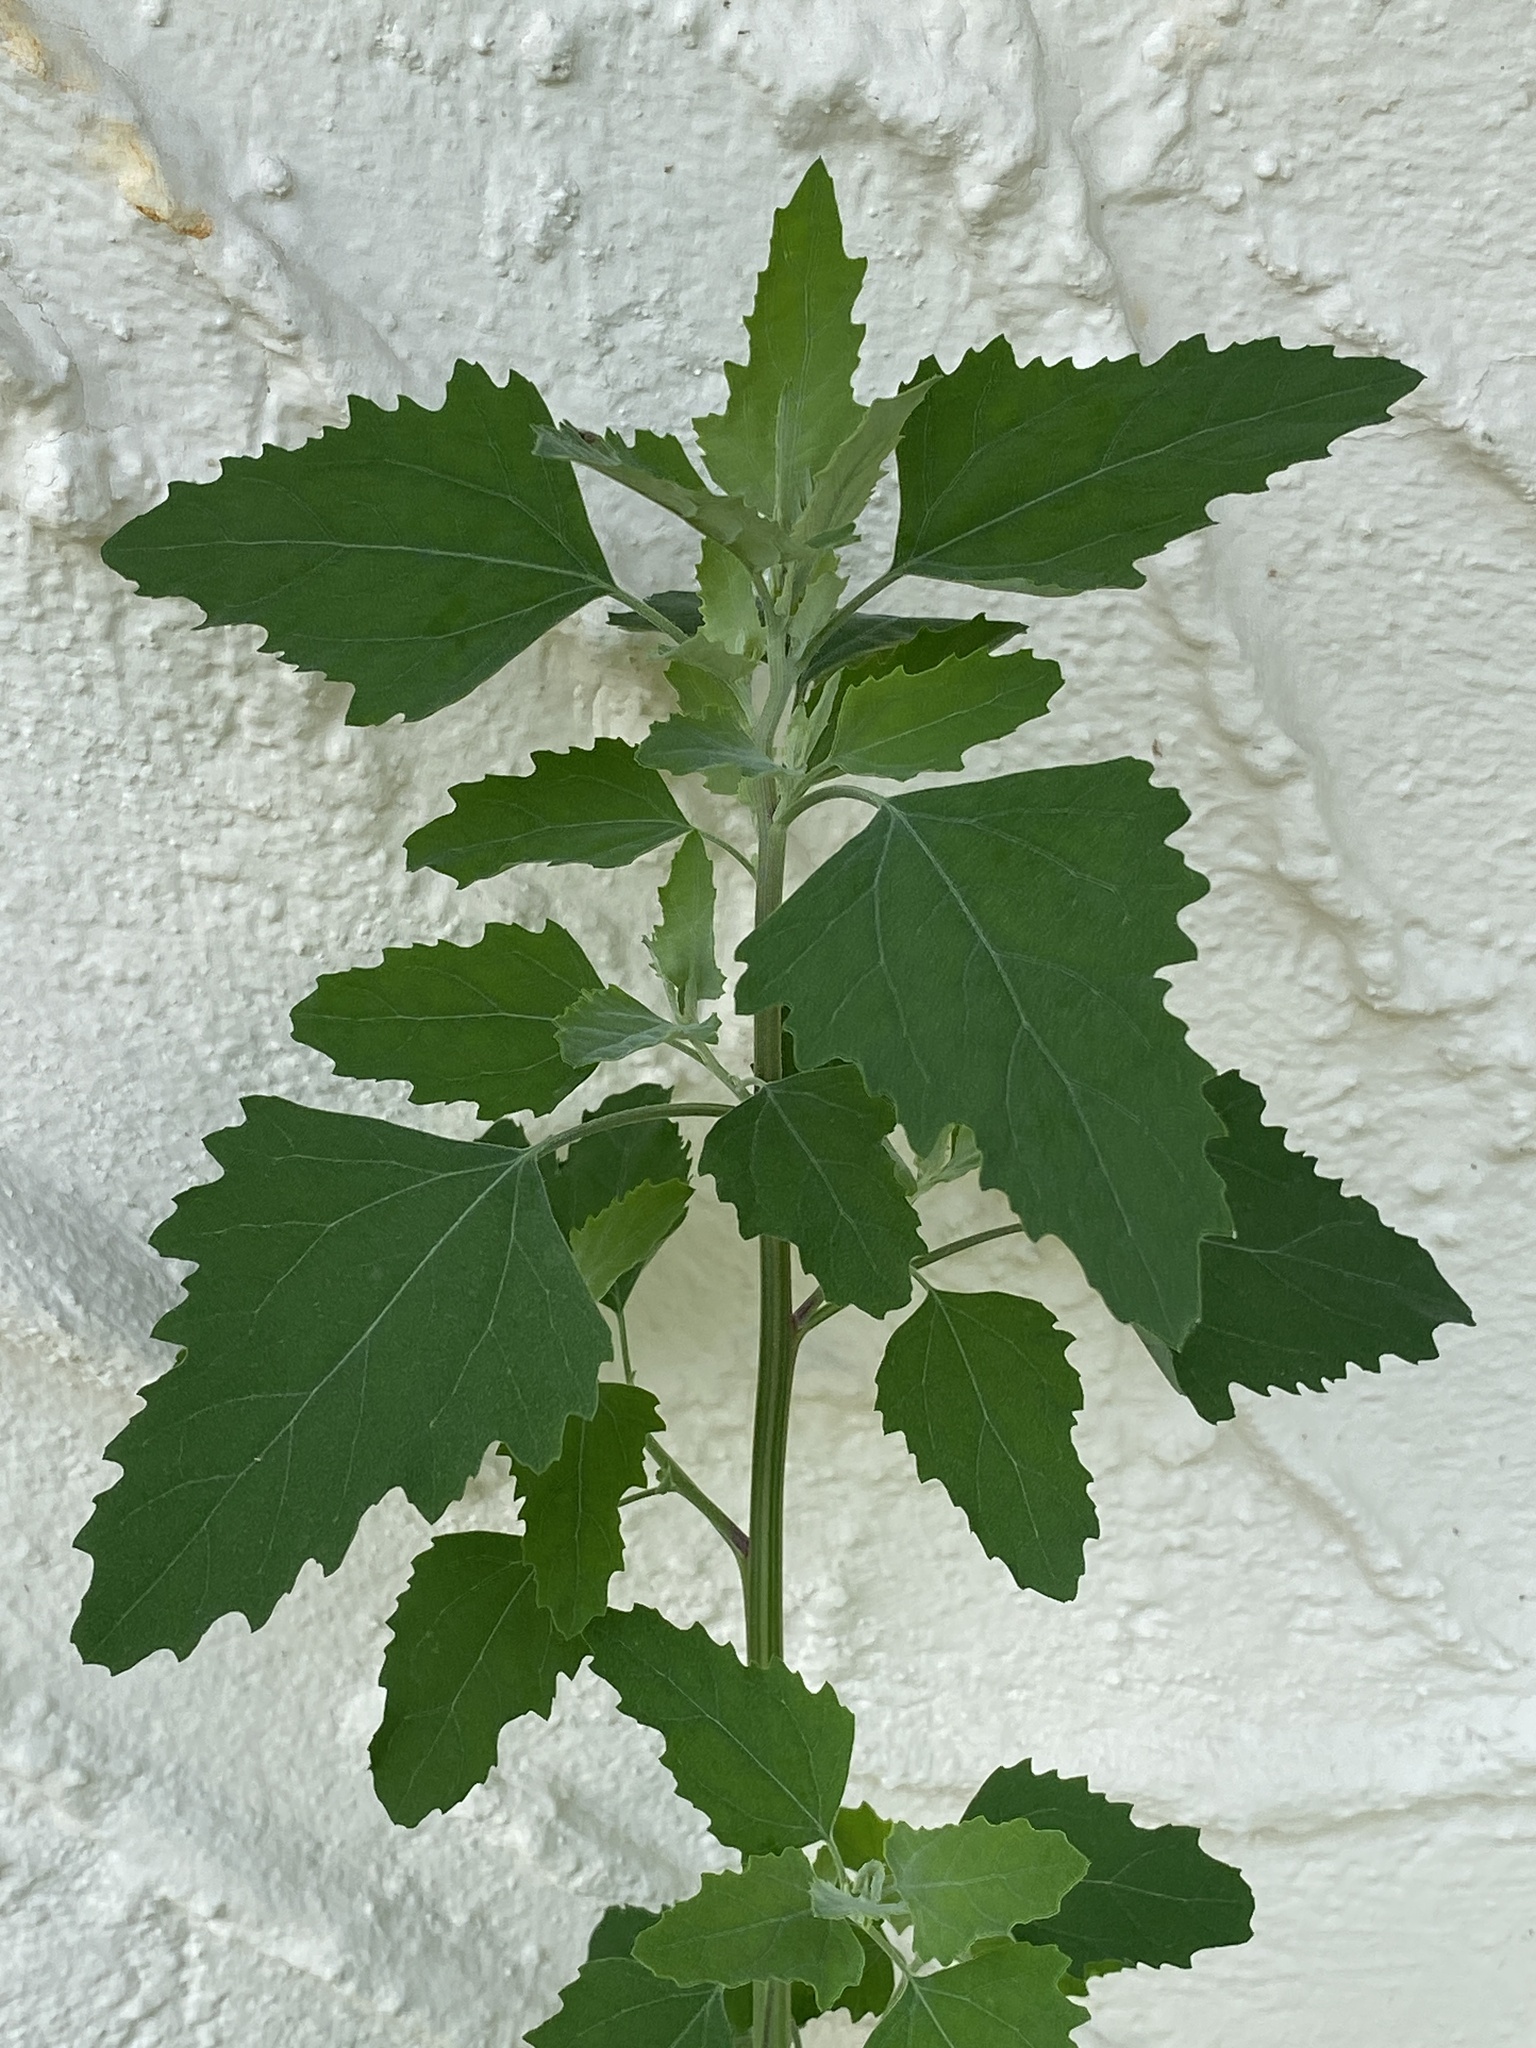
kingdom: Plantae
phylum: Tracheophyta
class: Magnoliopsida
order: Caryophyllales
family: Amaranthaceae
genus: Chenopodium
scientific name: Chenopodium album
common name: Fat-hen
